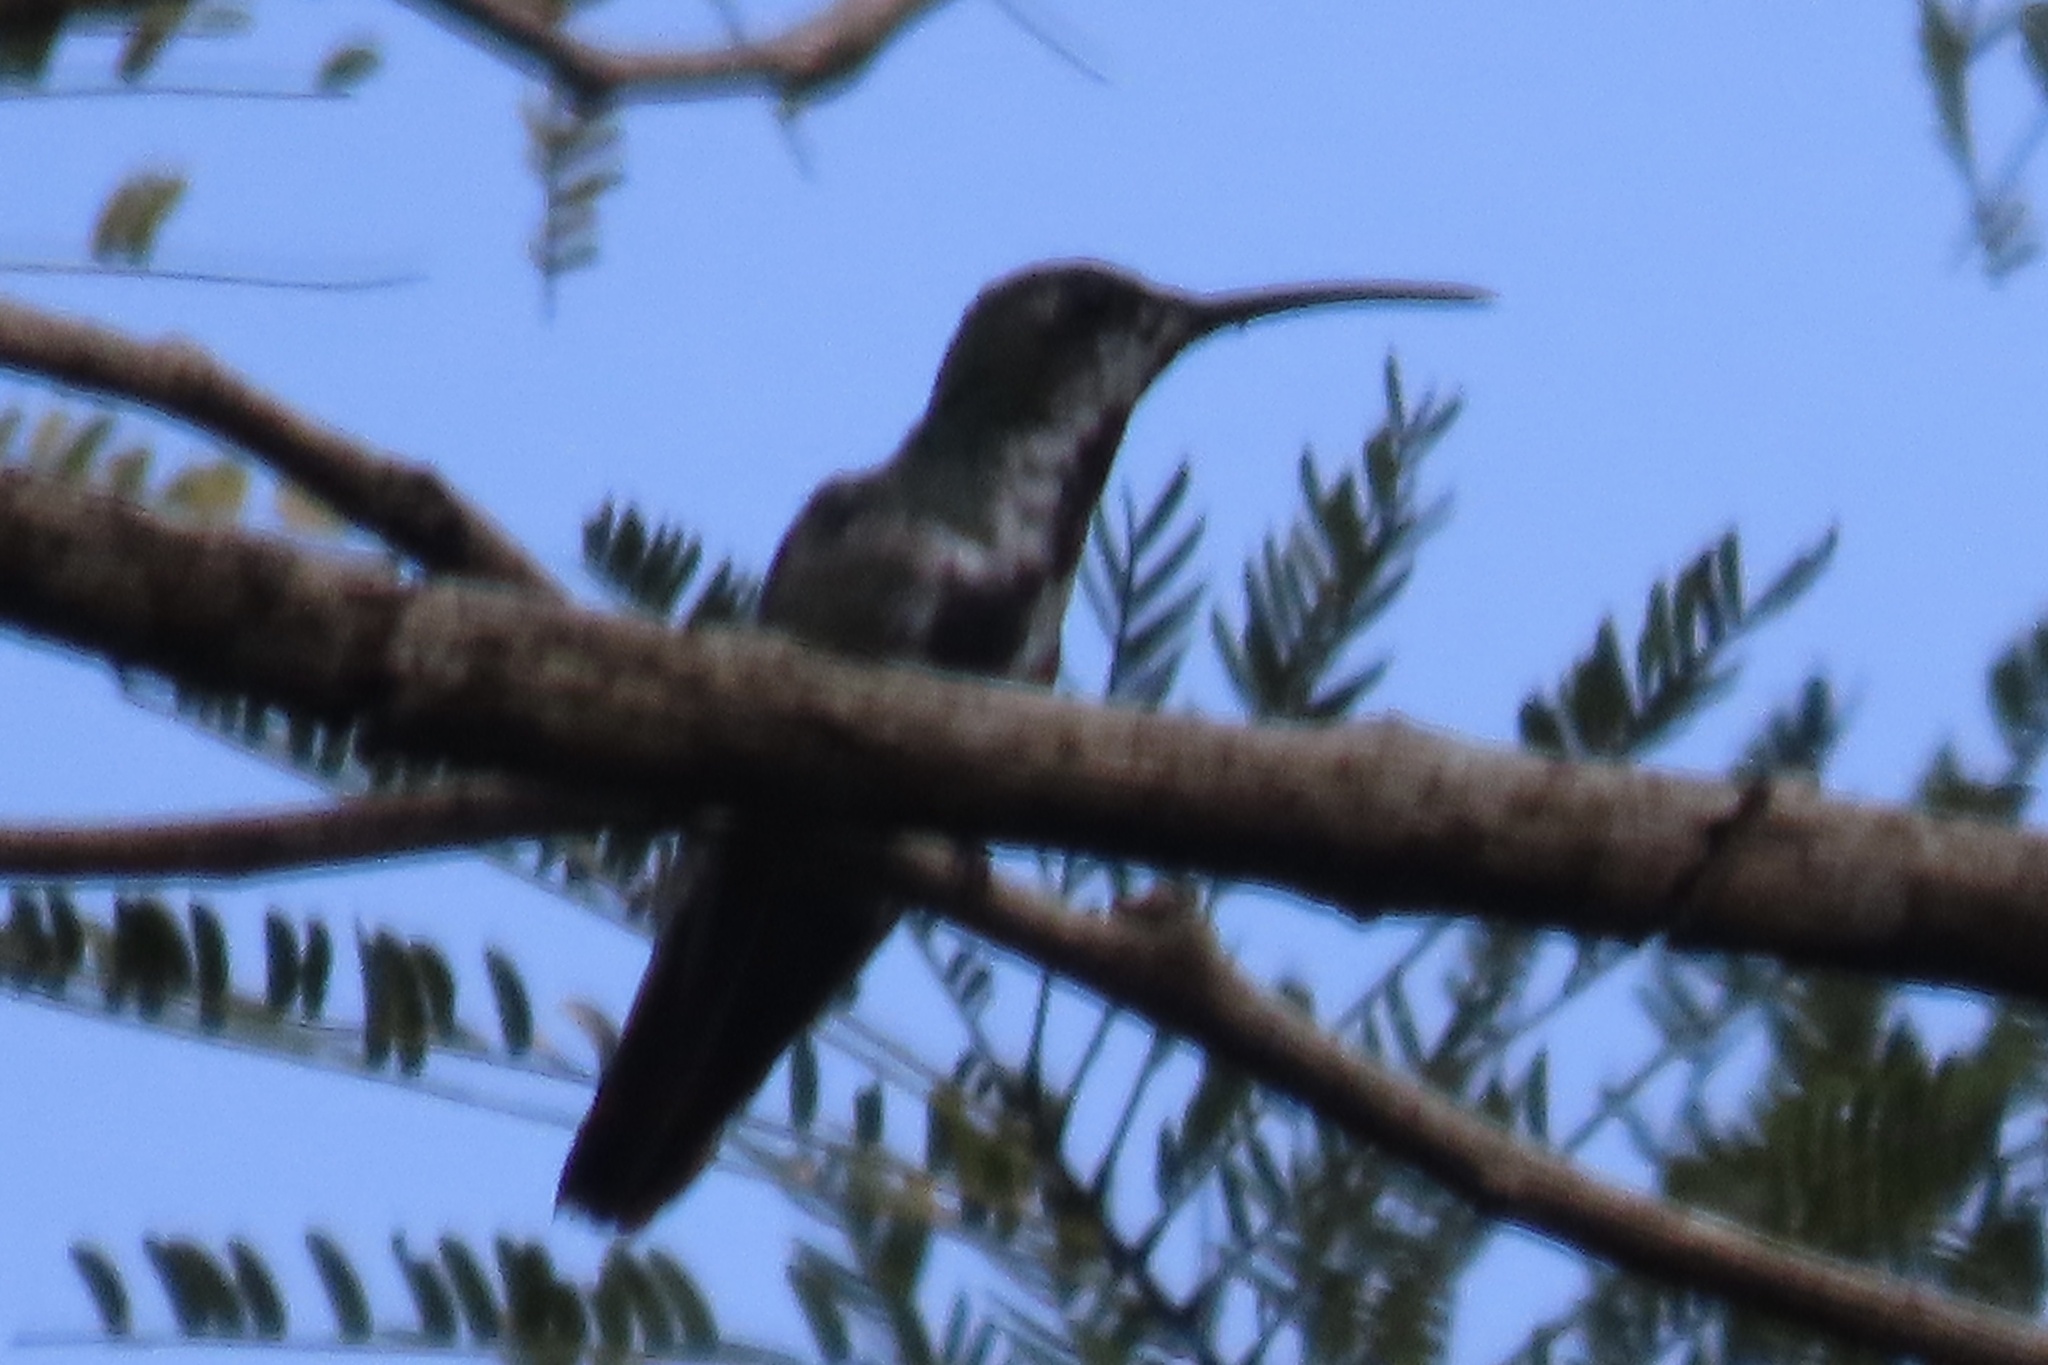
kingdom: Animalia
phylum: Chordata
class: Aves
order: Apodiformes
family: Trochilidae
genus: Anthracothorax
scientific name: Anthracothorax prevostii
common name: Green-breasted mango
